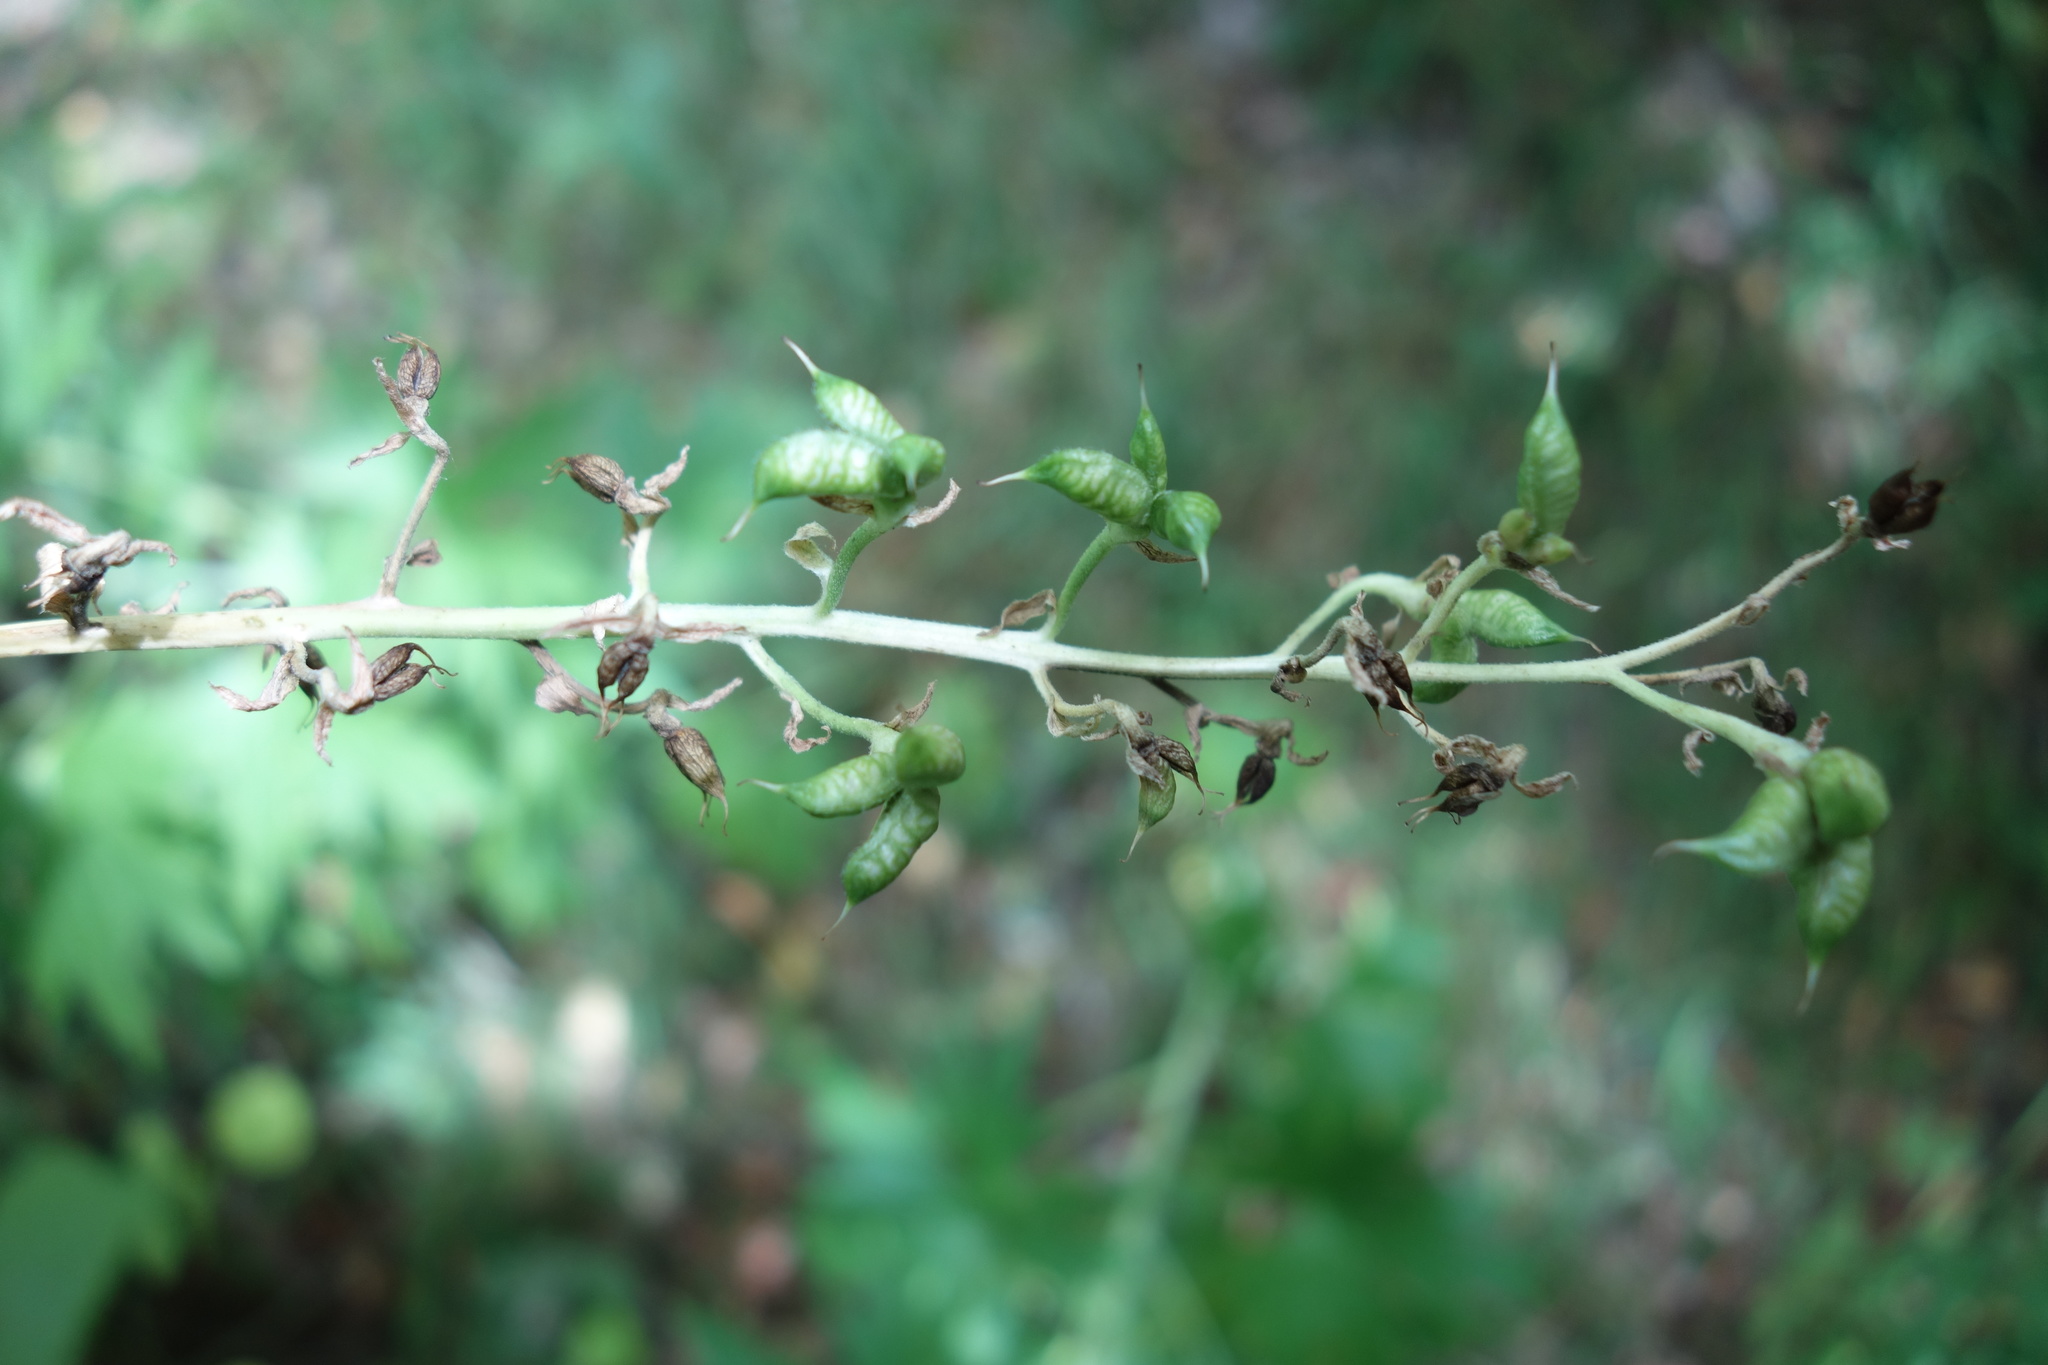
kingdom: Plantae
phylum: Tracheophyta
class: Magnoliopsida
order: Ranunculales
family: Ranunculaceae
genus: Delphinium
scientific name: Delphinium cuneatum
